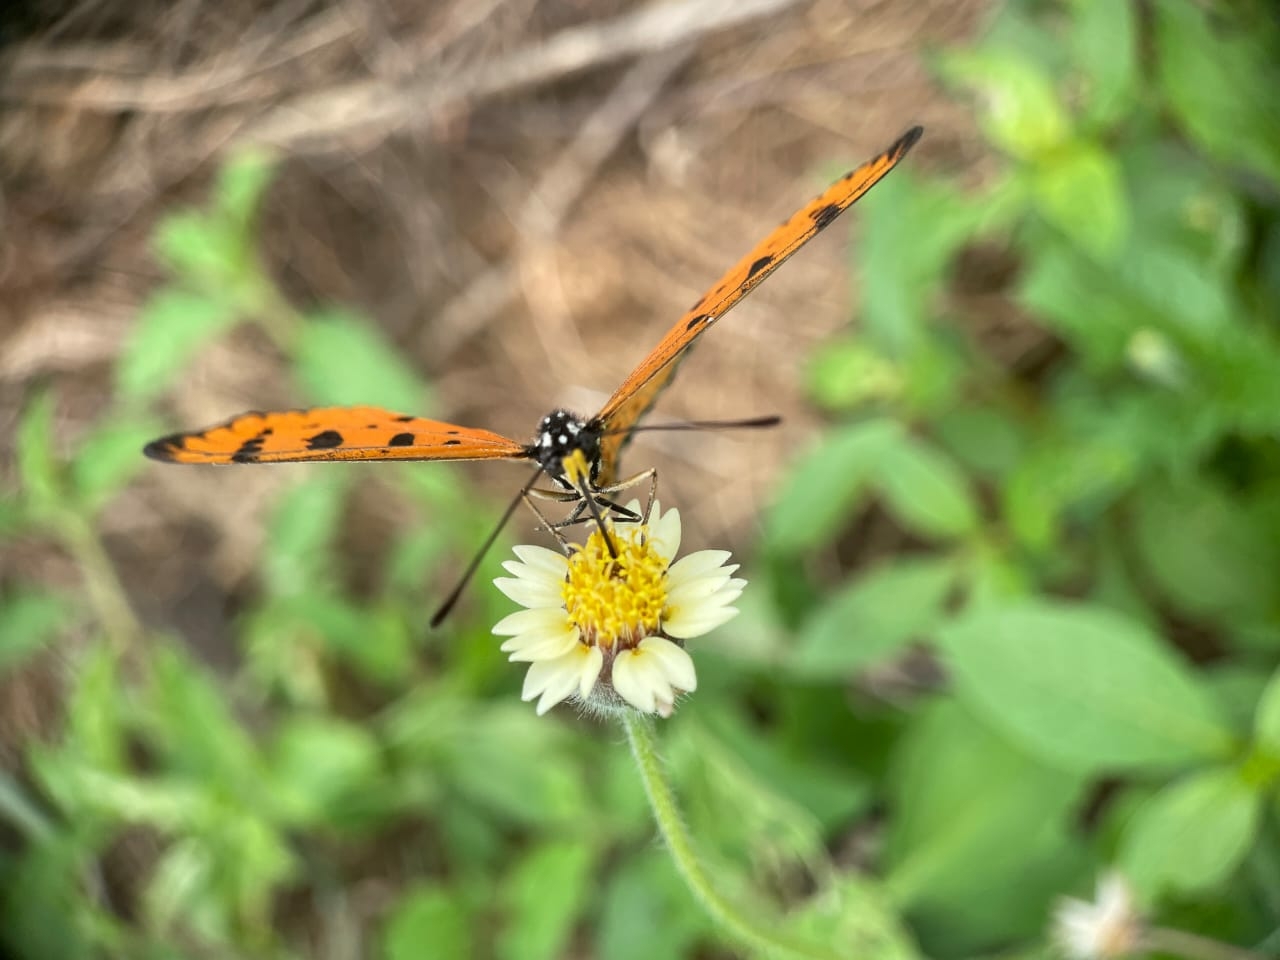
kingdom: Animalia
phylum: Arthropoda
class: Insecta
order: Lepidoptera
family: Nymphalidae
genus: Acraea
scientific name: Acraea terpsicore
